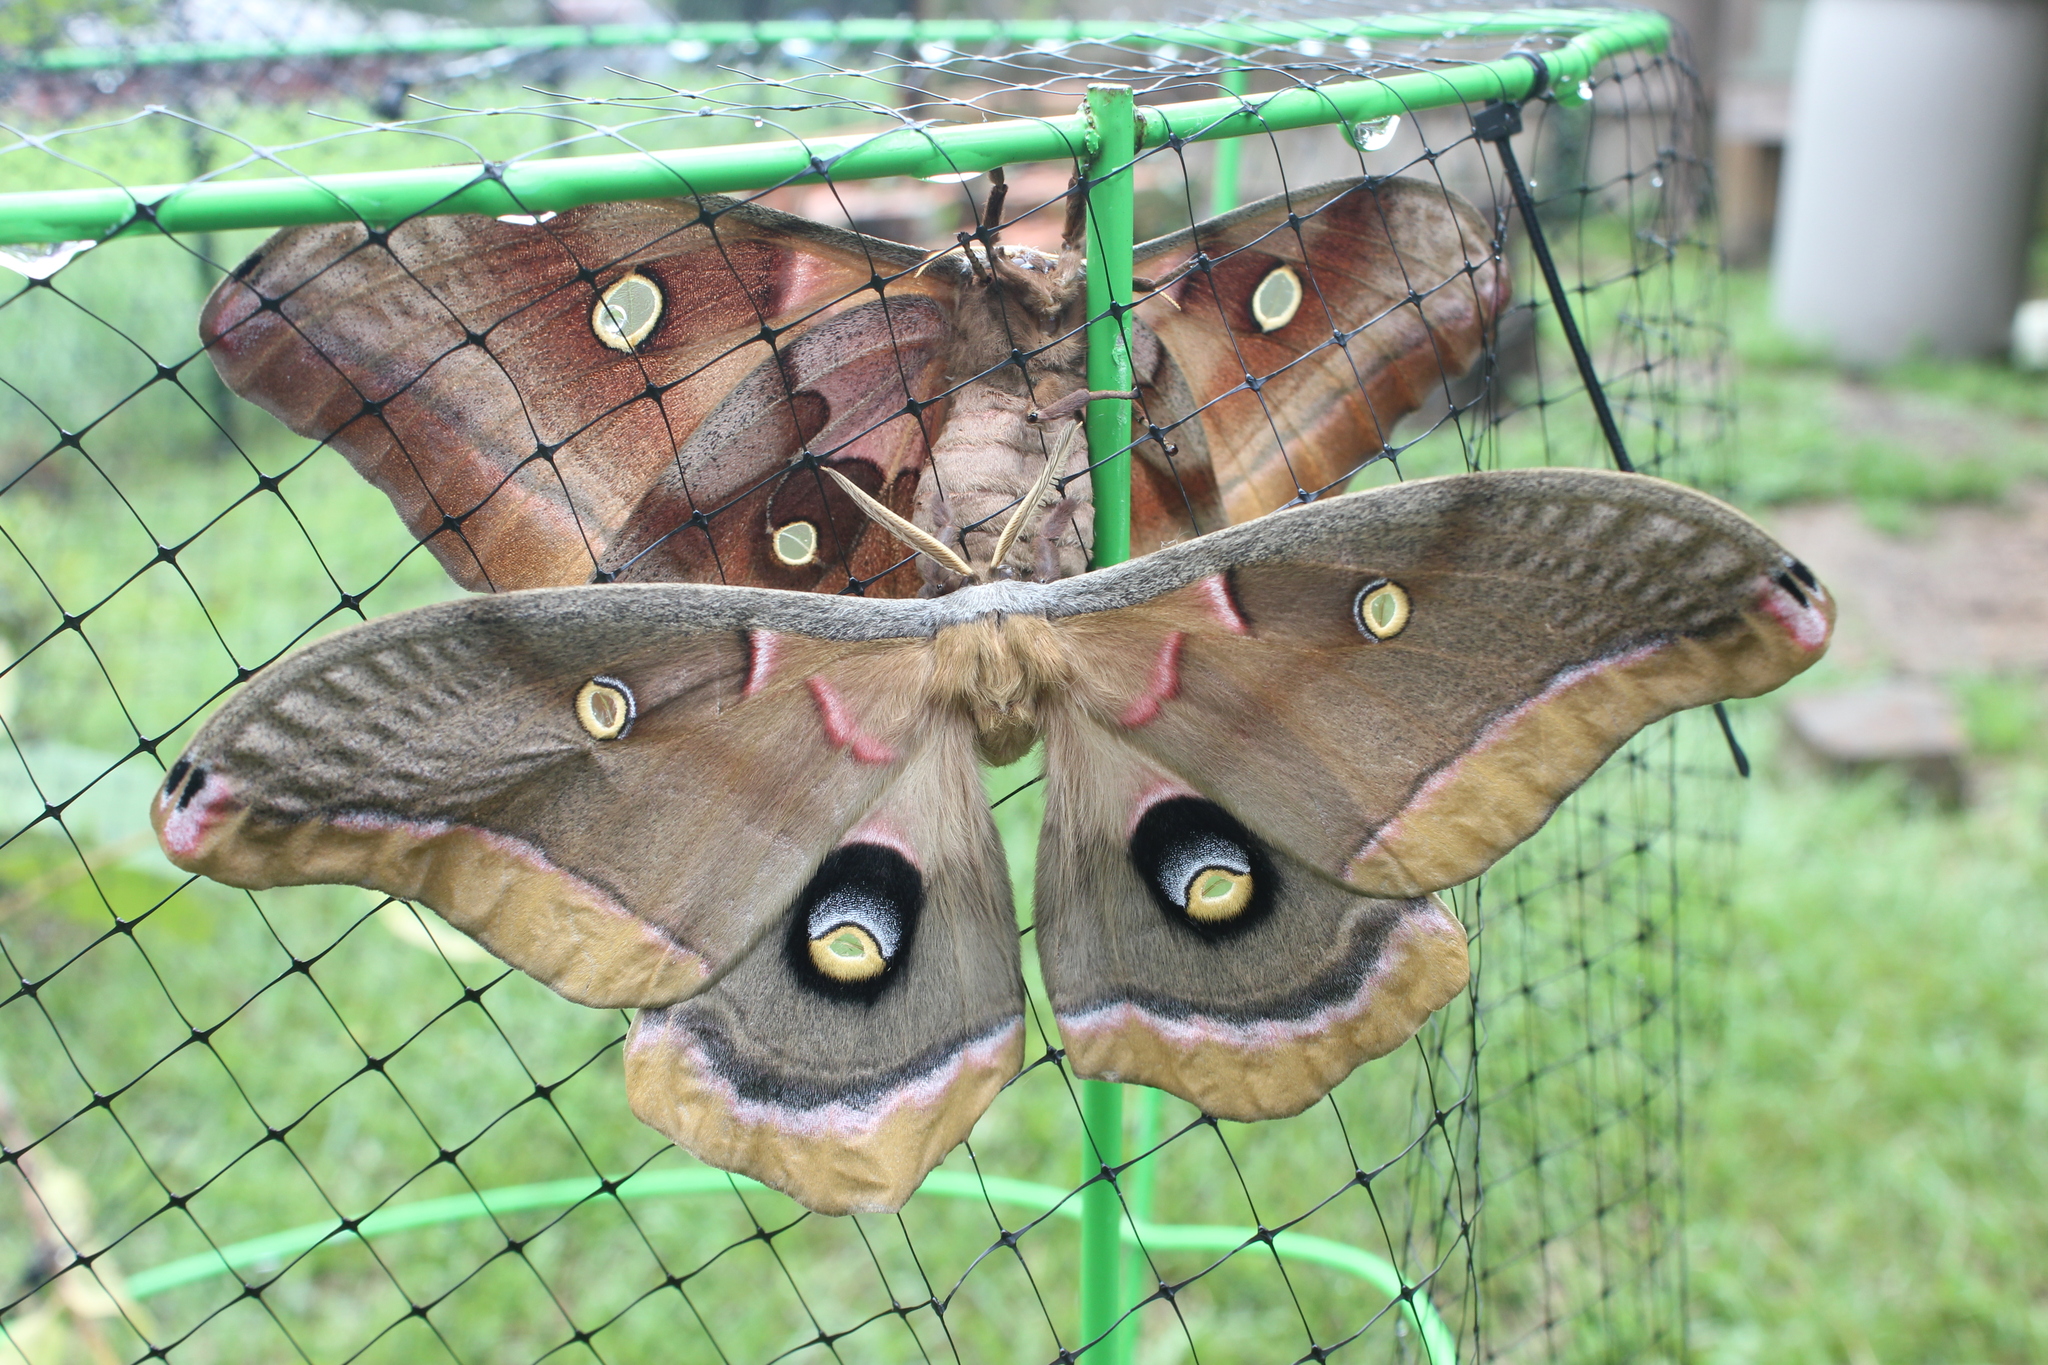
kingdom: Animalia
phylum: Arthropoda
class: Insecta
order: Lepidoptera
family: Saturniidae
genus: Antheraea
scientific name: Antheraea polyphemus
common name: Polyphemus moth
